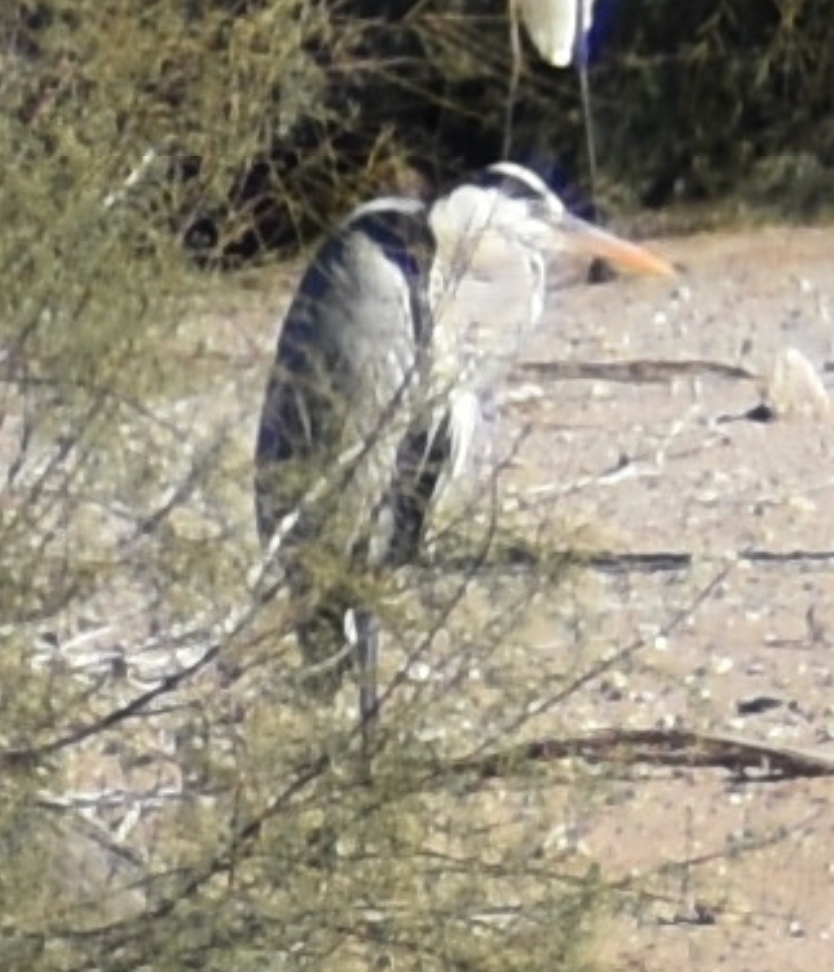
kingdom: Animalia
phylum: Chordata
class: Aves
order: Pelecaniformes
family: Ardeidae
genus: Ardea
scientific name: Ardea cinerea
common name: Grey heron
